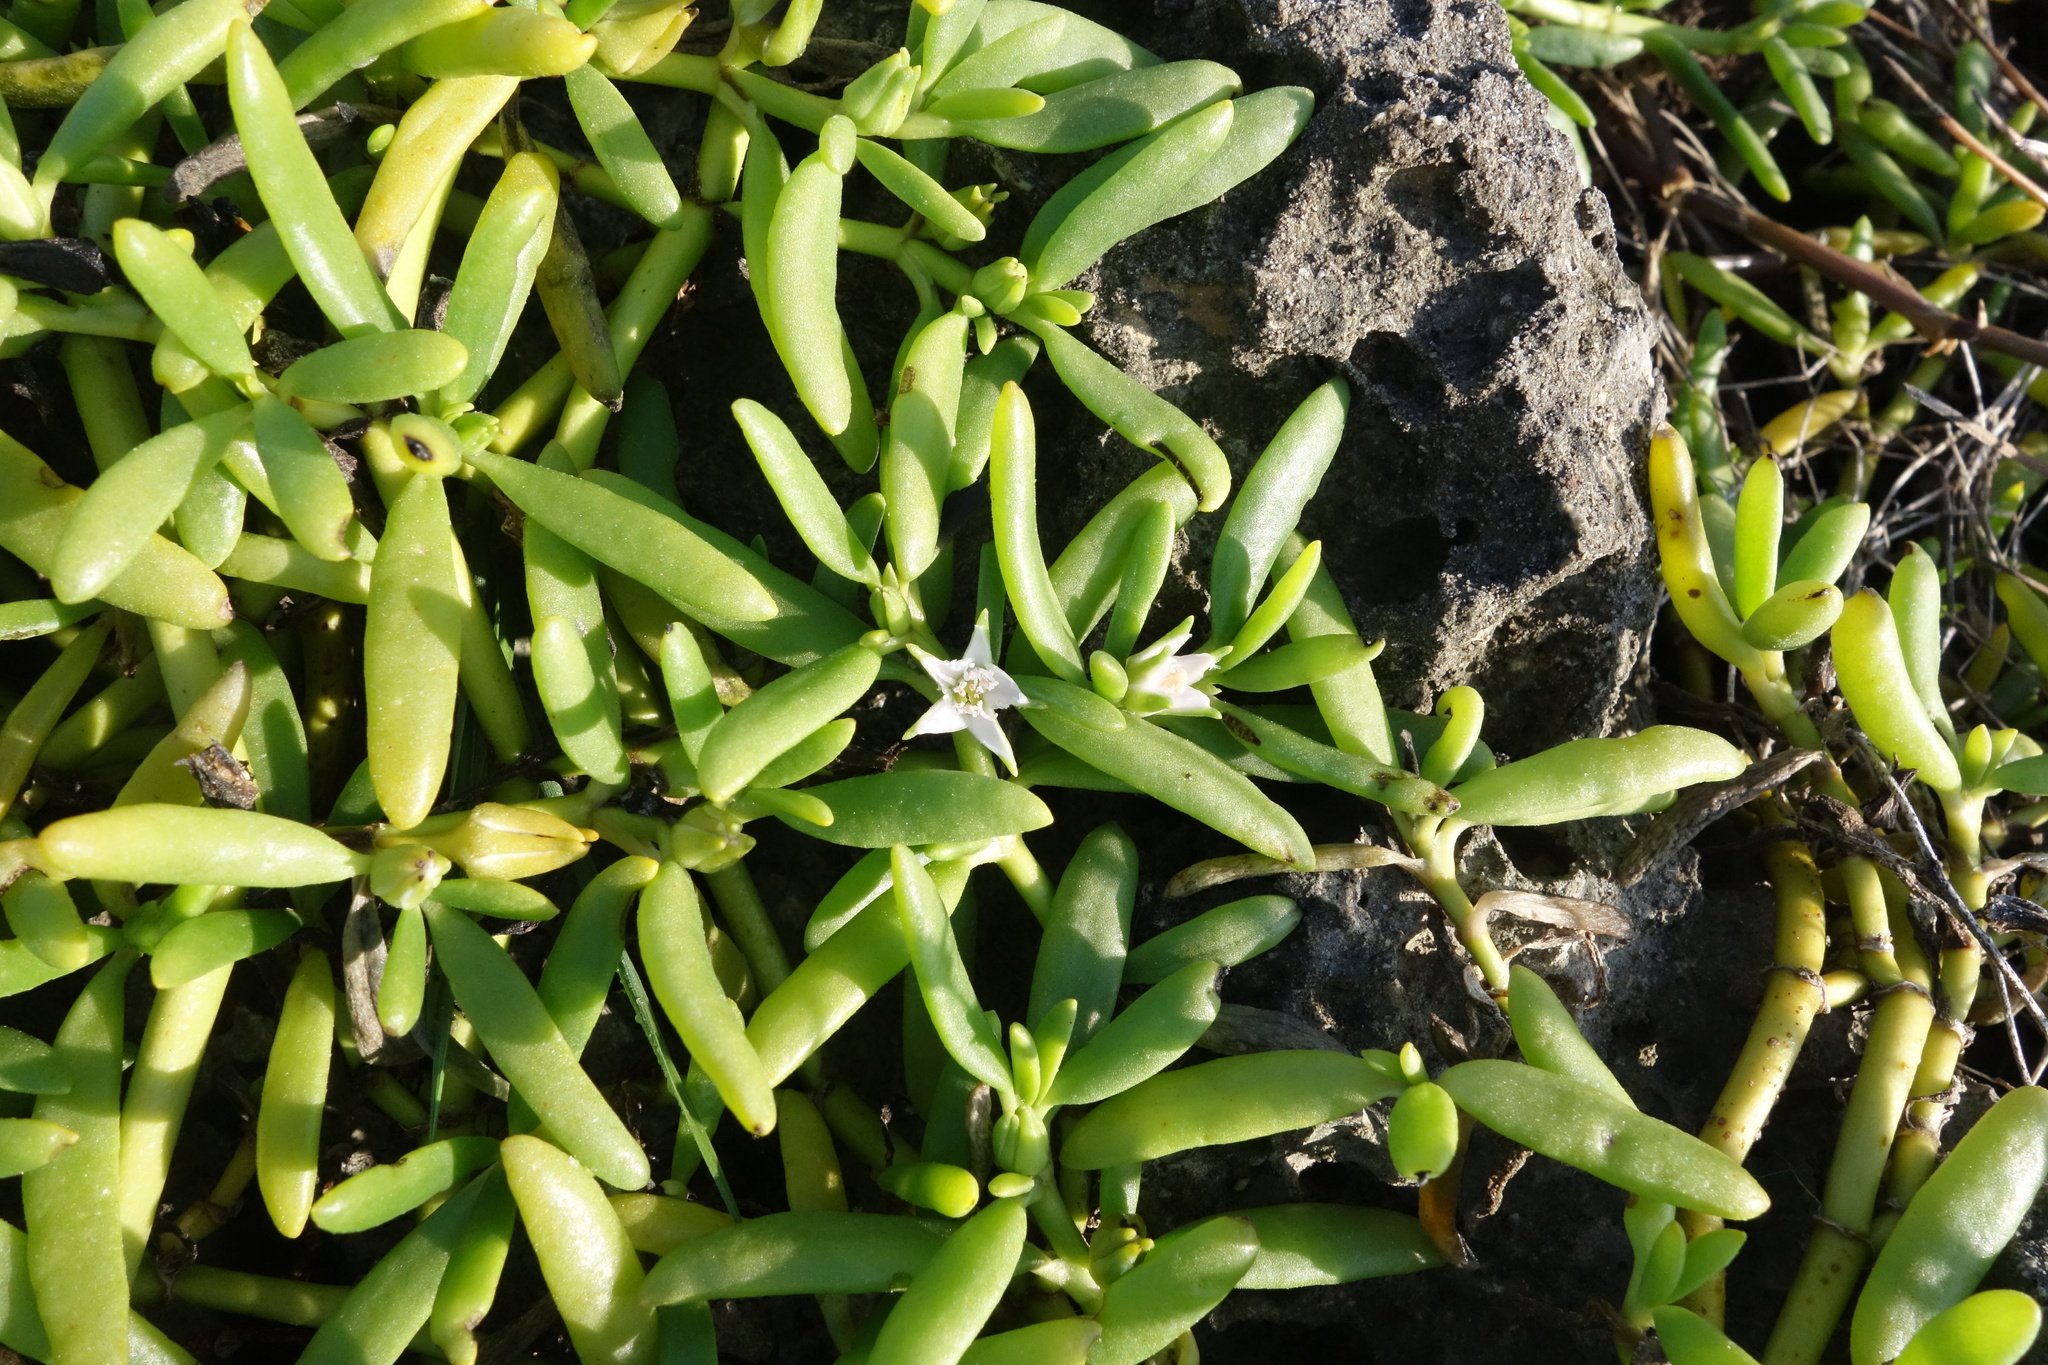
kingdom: Plantae
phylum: Tracheophyta
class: Magnoliopsida
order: Caryophyllales
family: Aizoaceae
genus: Sesuvium
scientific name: Sesuvium portulacastrum
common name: Sea-purslane
